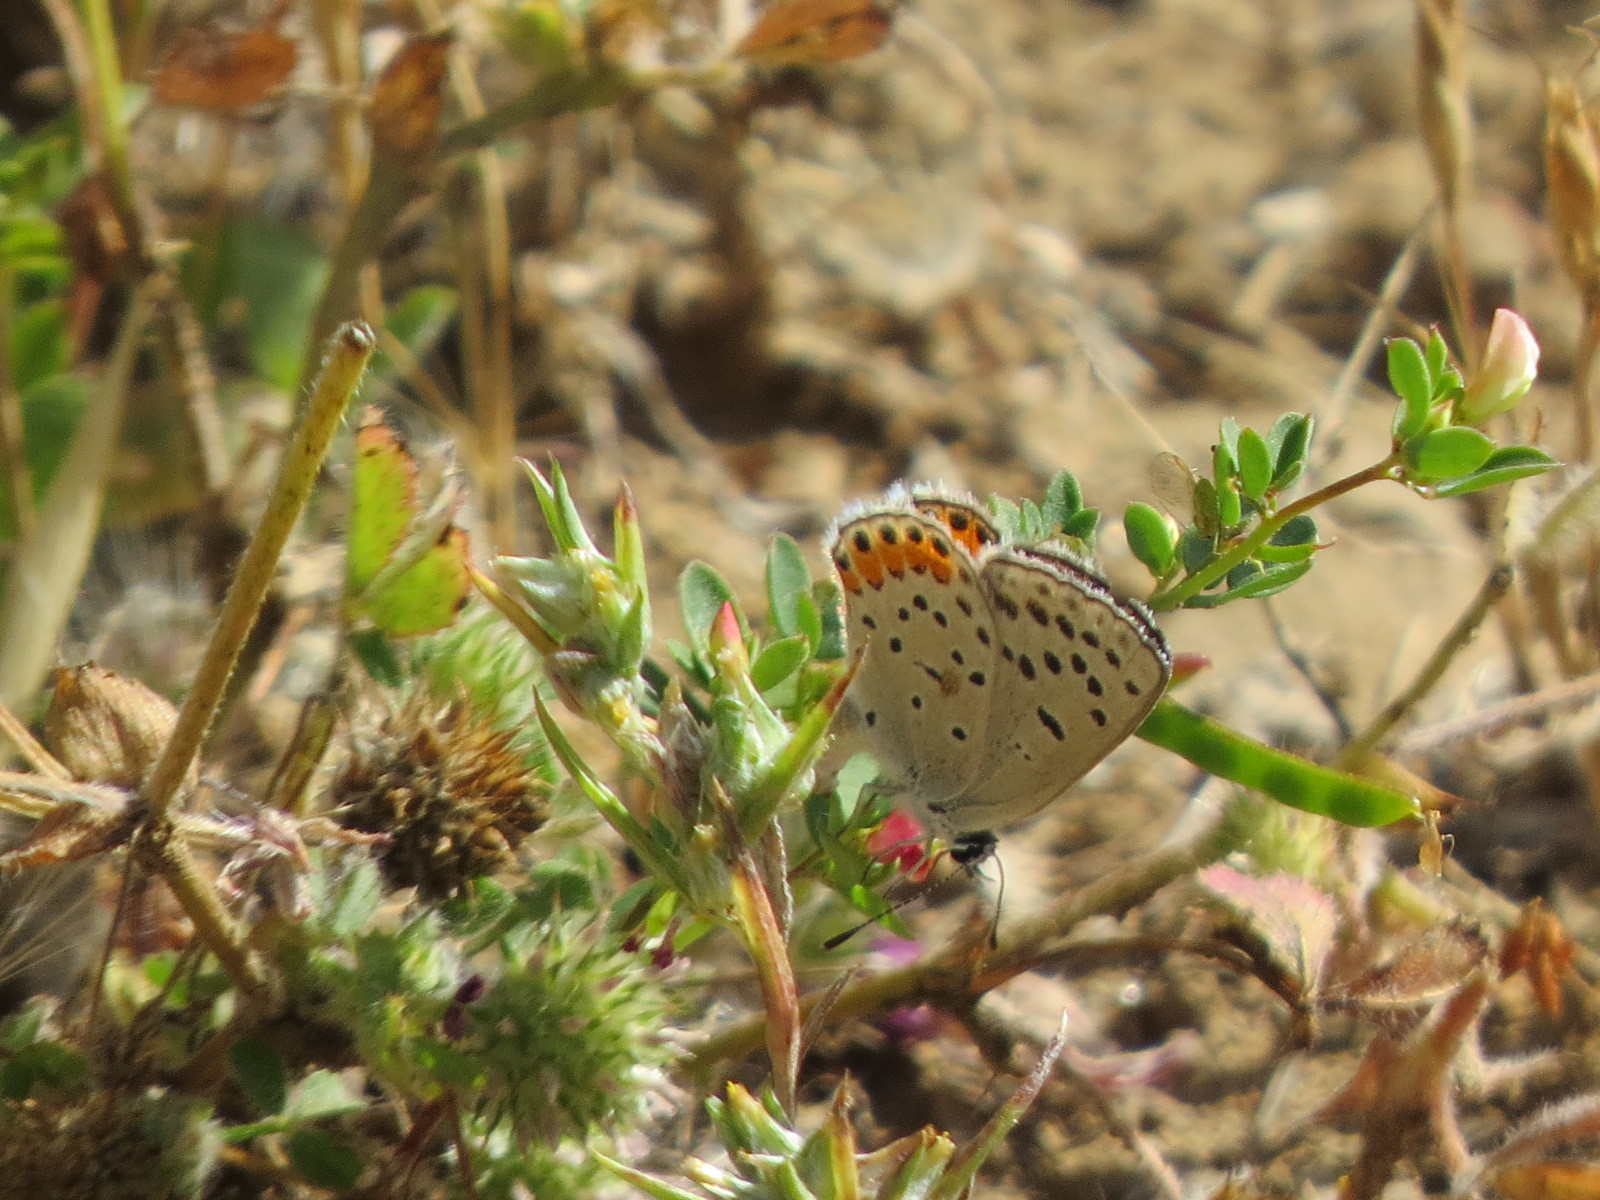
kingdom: Animalia
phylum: Arthropoda
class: Insecta
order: Lepidoptera
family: Lycaenidae
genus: Icaricia
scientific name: Icaricia acmon
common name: Acmon blue
